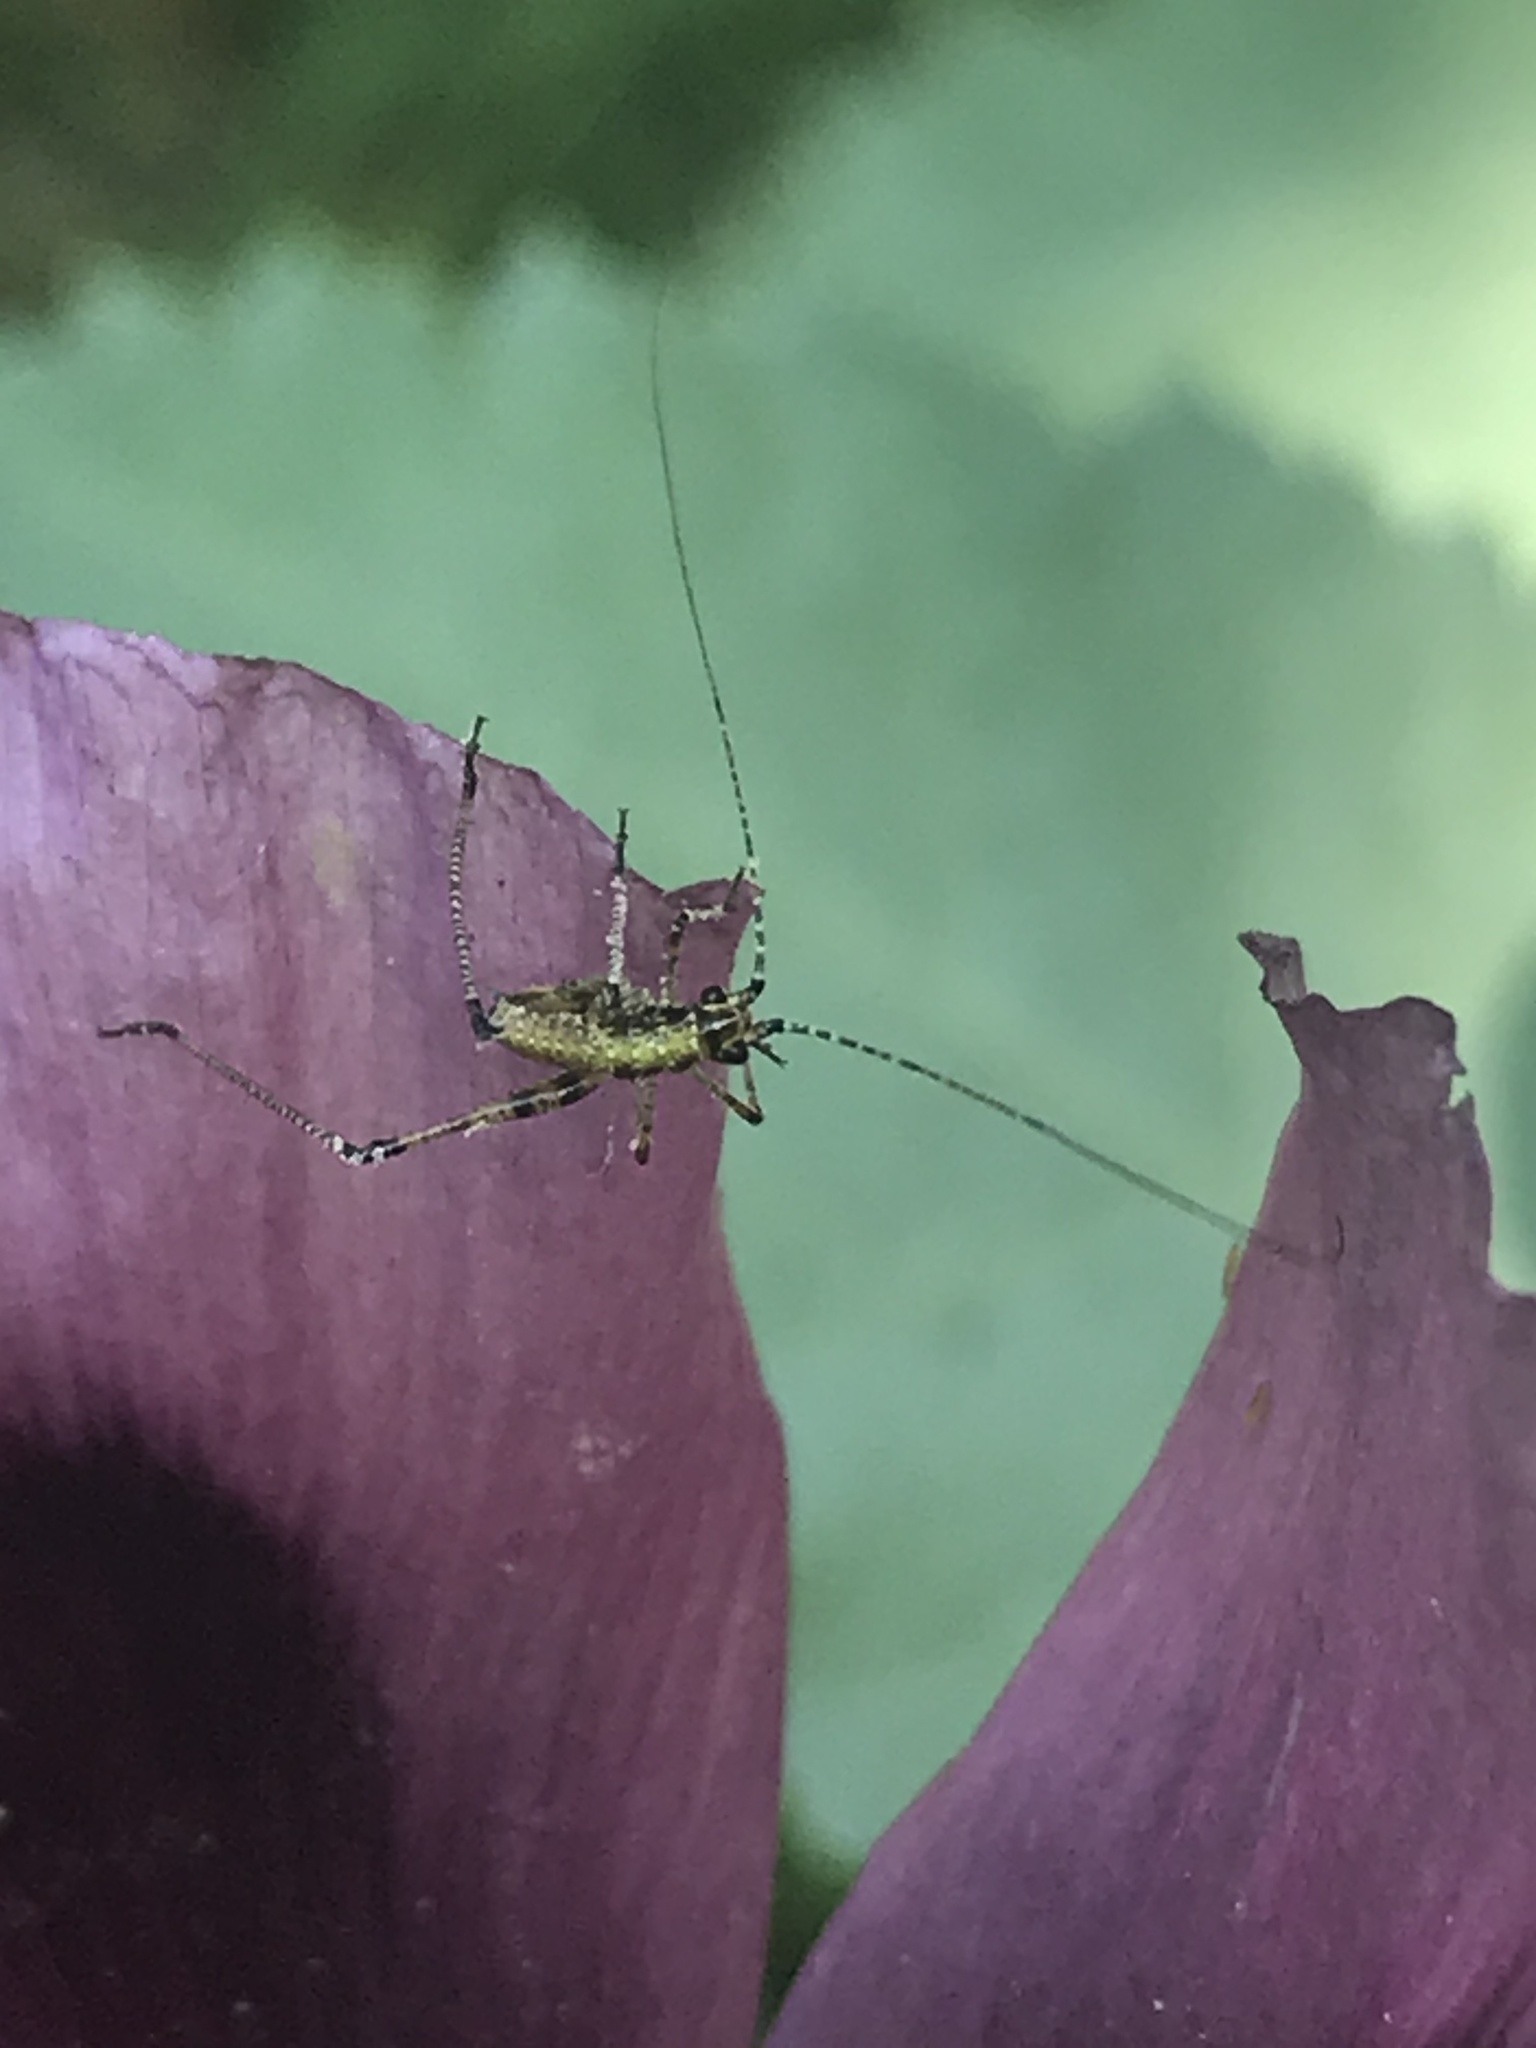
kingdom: Animalia
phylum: Arthropoda
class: Insecta
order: Orthoptera
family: Tettigoniidae
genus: Phaneroptera
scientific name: Phaneroptera nana
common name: Southern sickle bush-cricket
